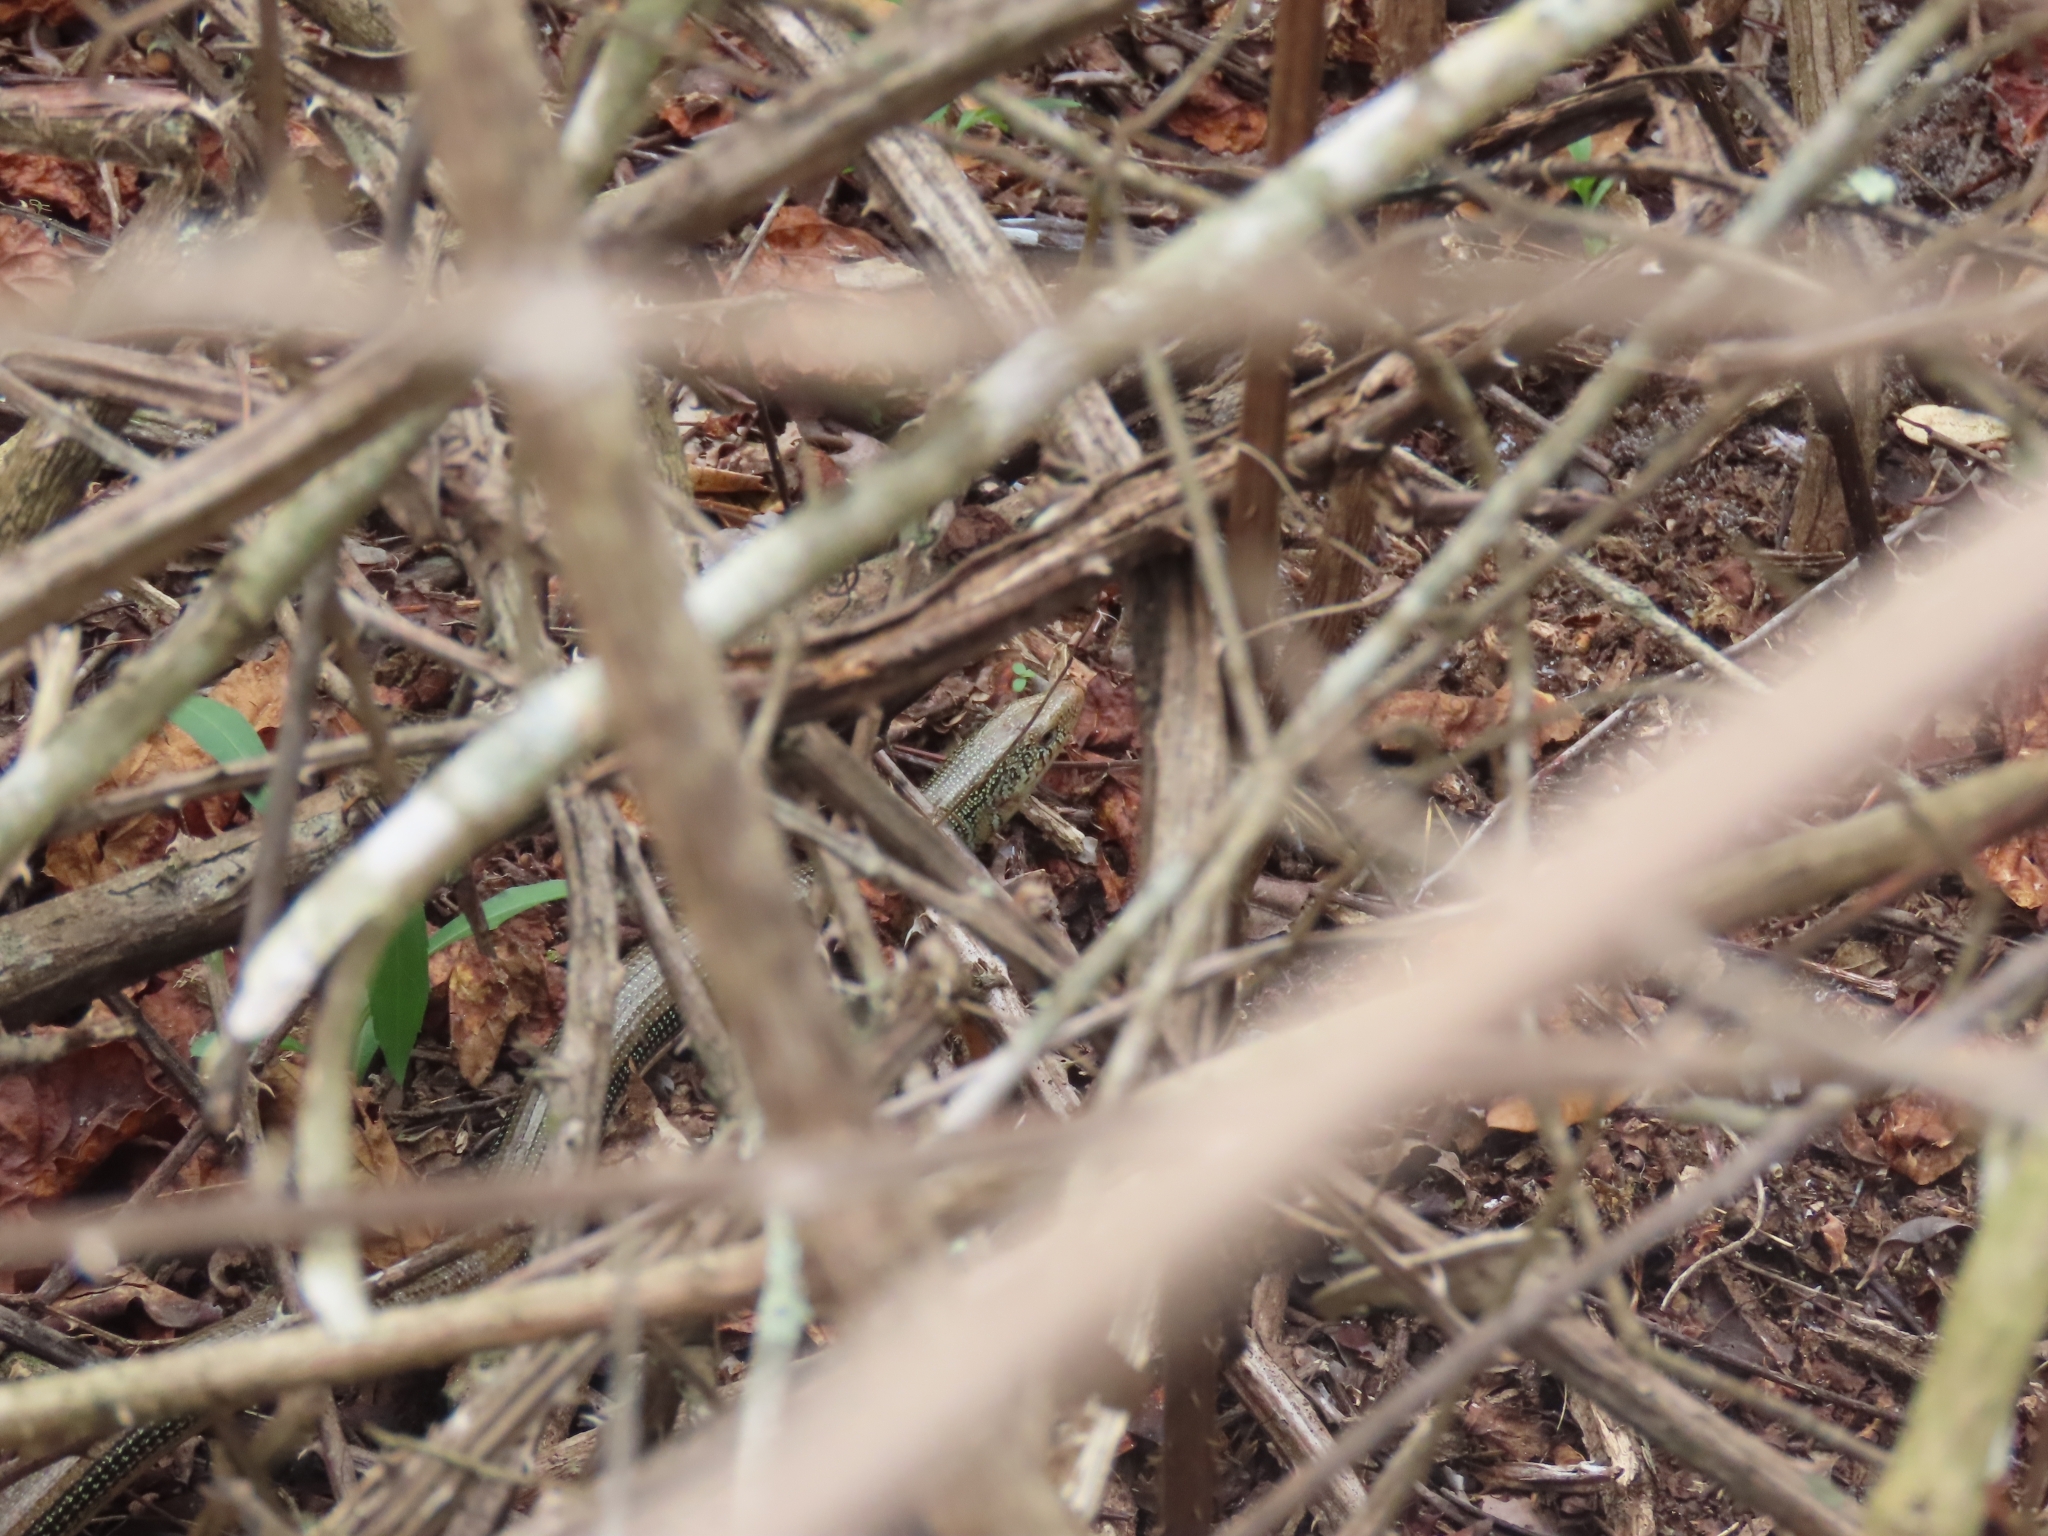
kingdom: Animalia
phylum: Chordata
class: Squamata
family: Anguidae
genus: Ophisaurus
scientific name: Ophisaurus ventralis
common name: Eastern glass lizard
